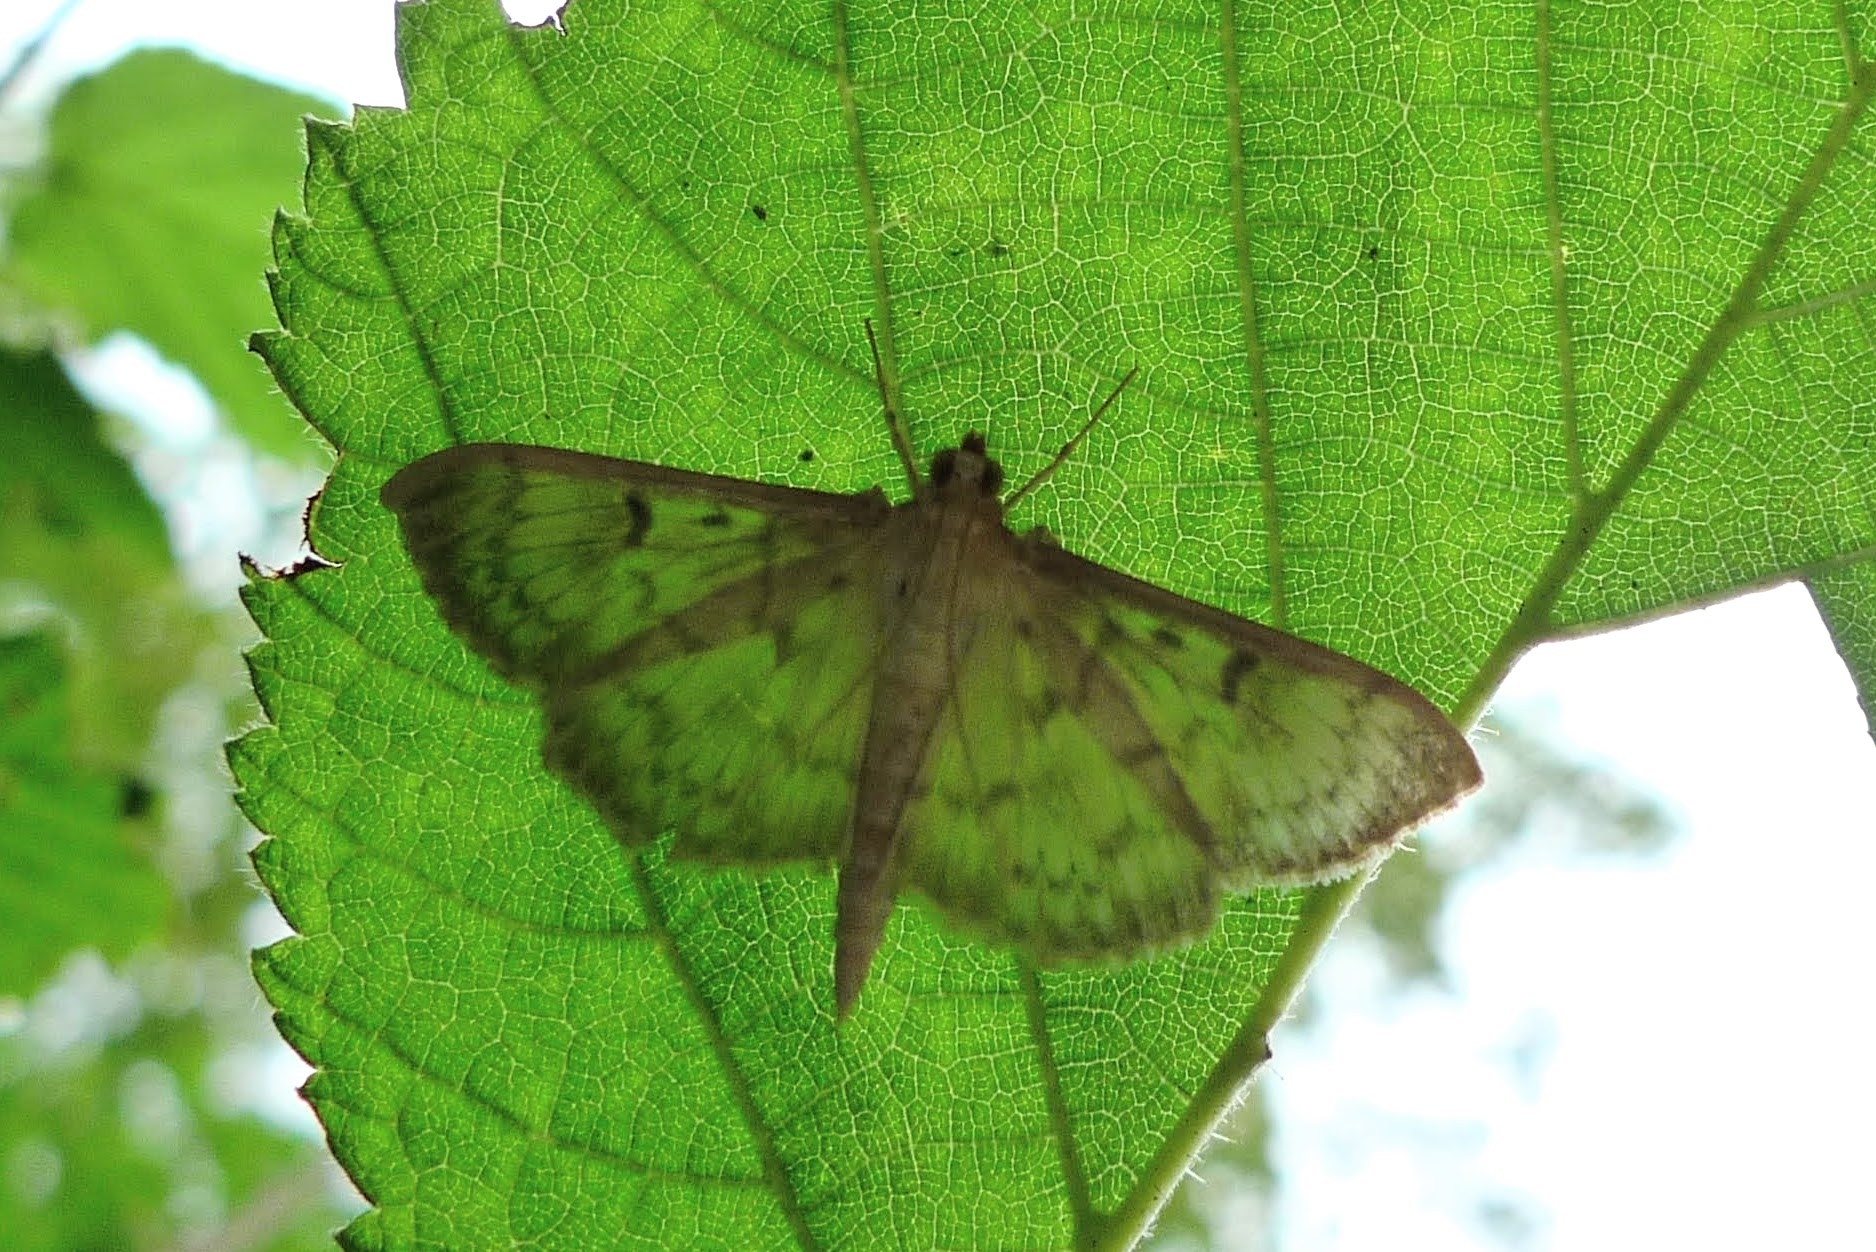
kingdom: Animalia
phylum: Arthropoda
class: Insecta
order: Lepidoptera
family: Crambidae
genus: Patania
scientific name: Patania ruralis
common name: Mother of pearl
